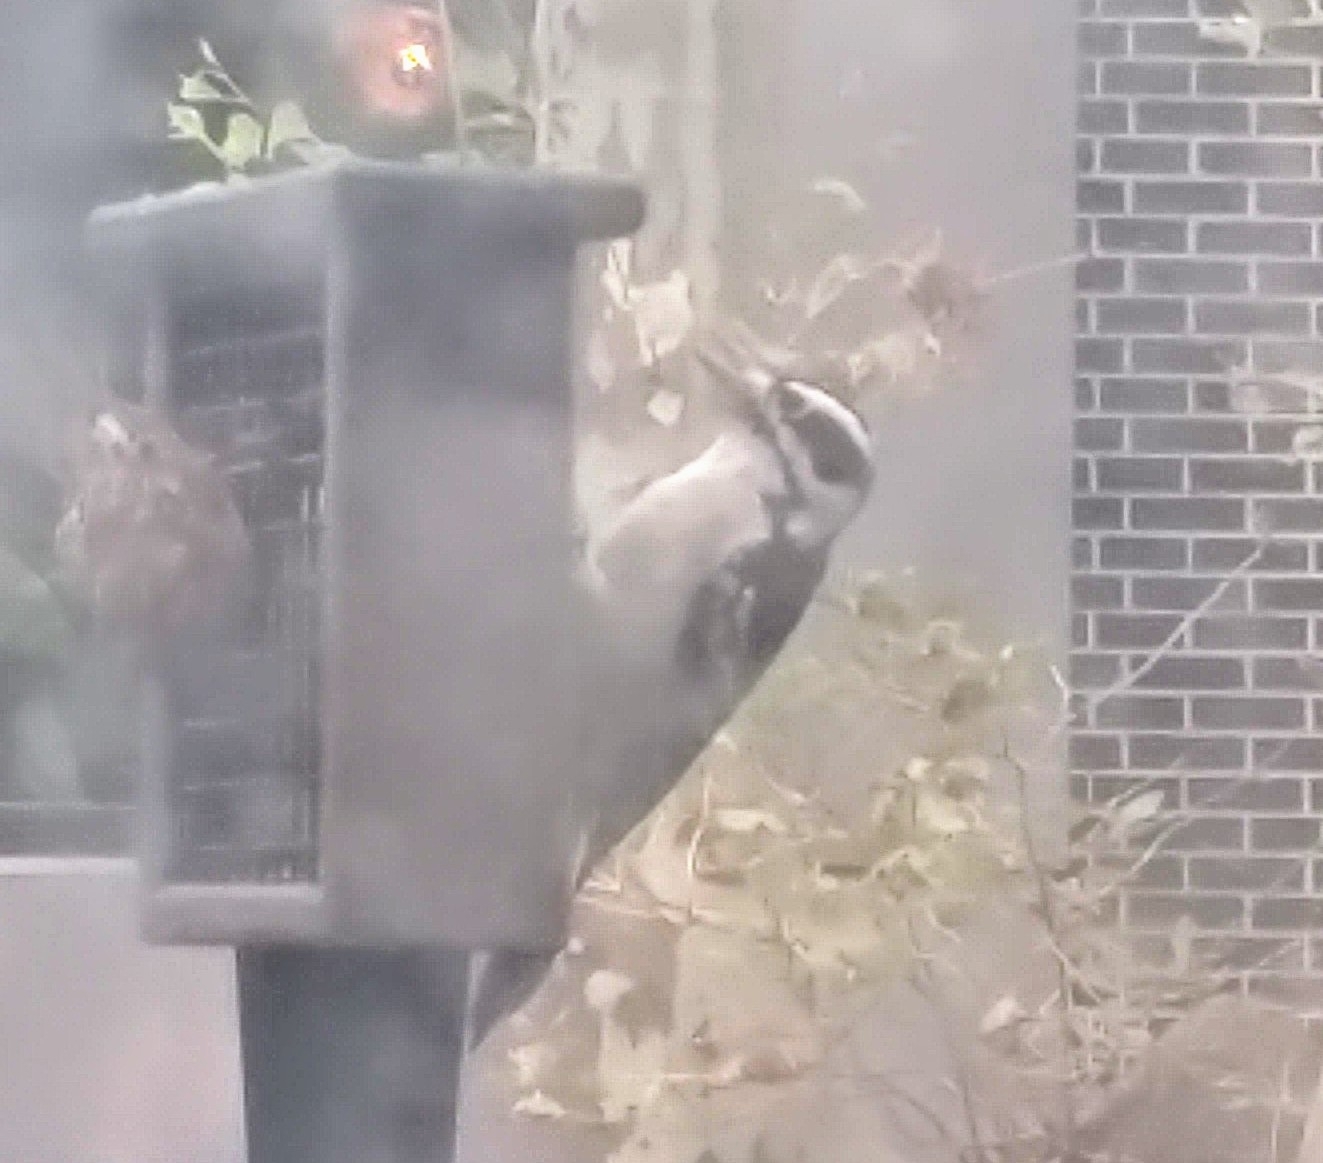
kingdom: Animalia
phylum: Chordata
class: Aves
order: Piciformes
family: Picidae
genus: Dryobates
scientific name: Dryobates pubescens
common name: Downy woodpecker
